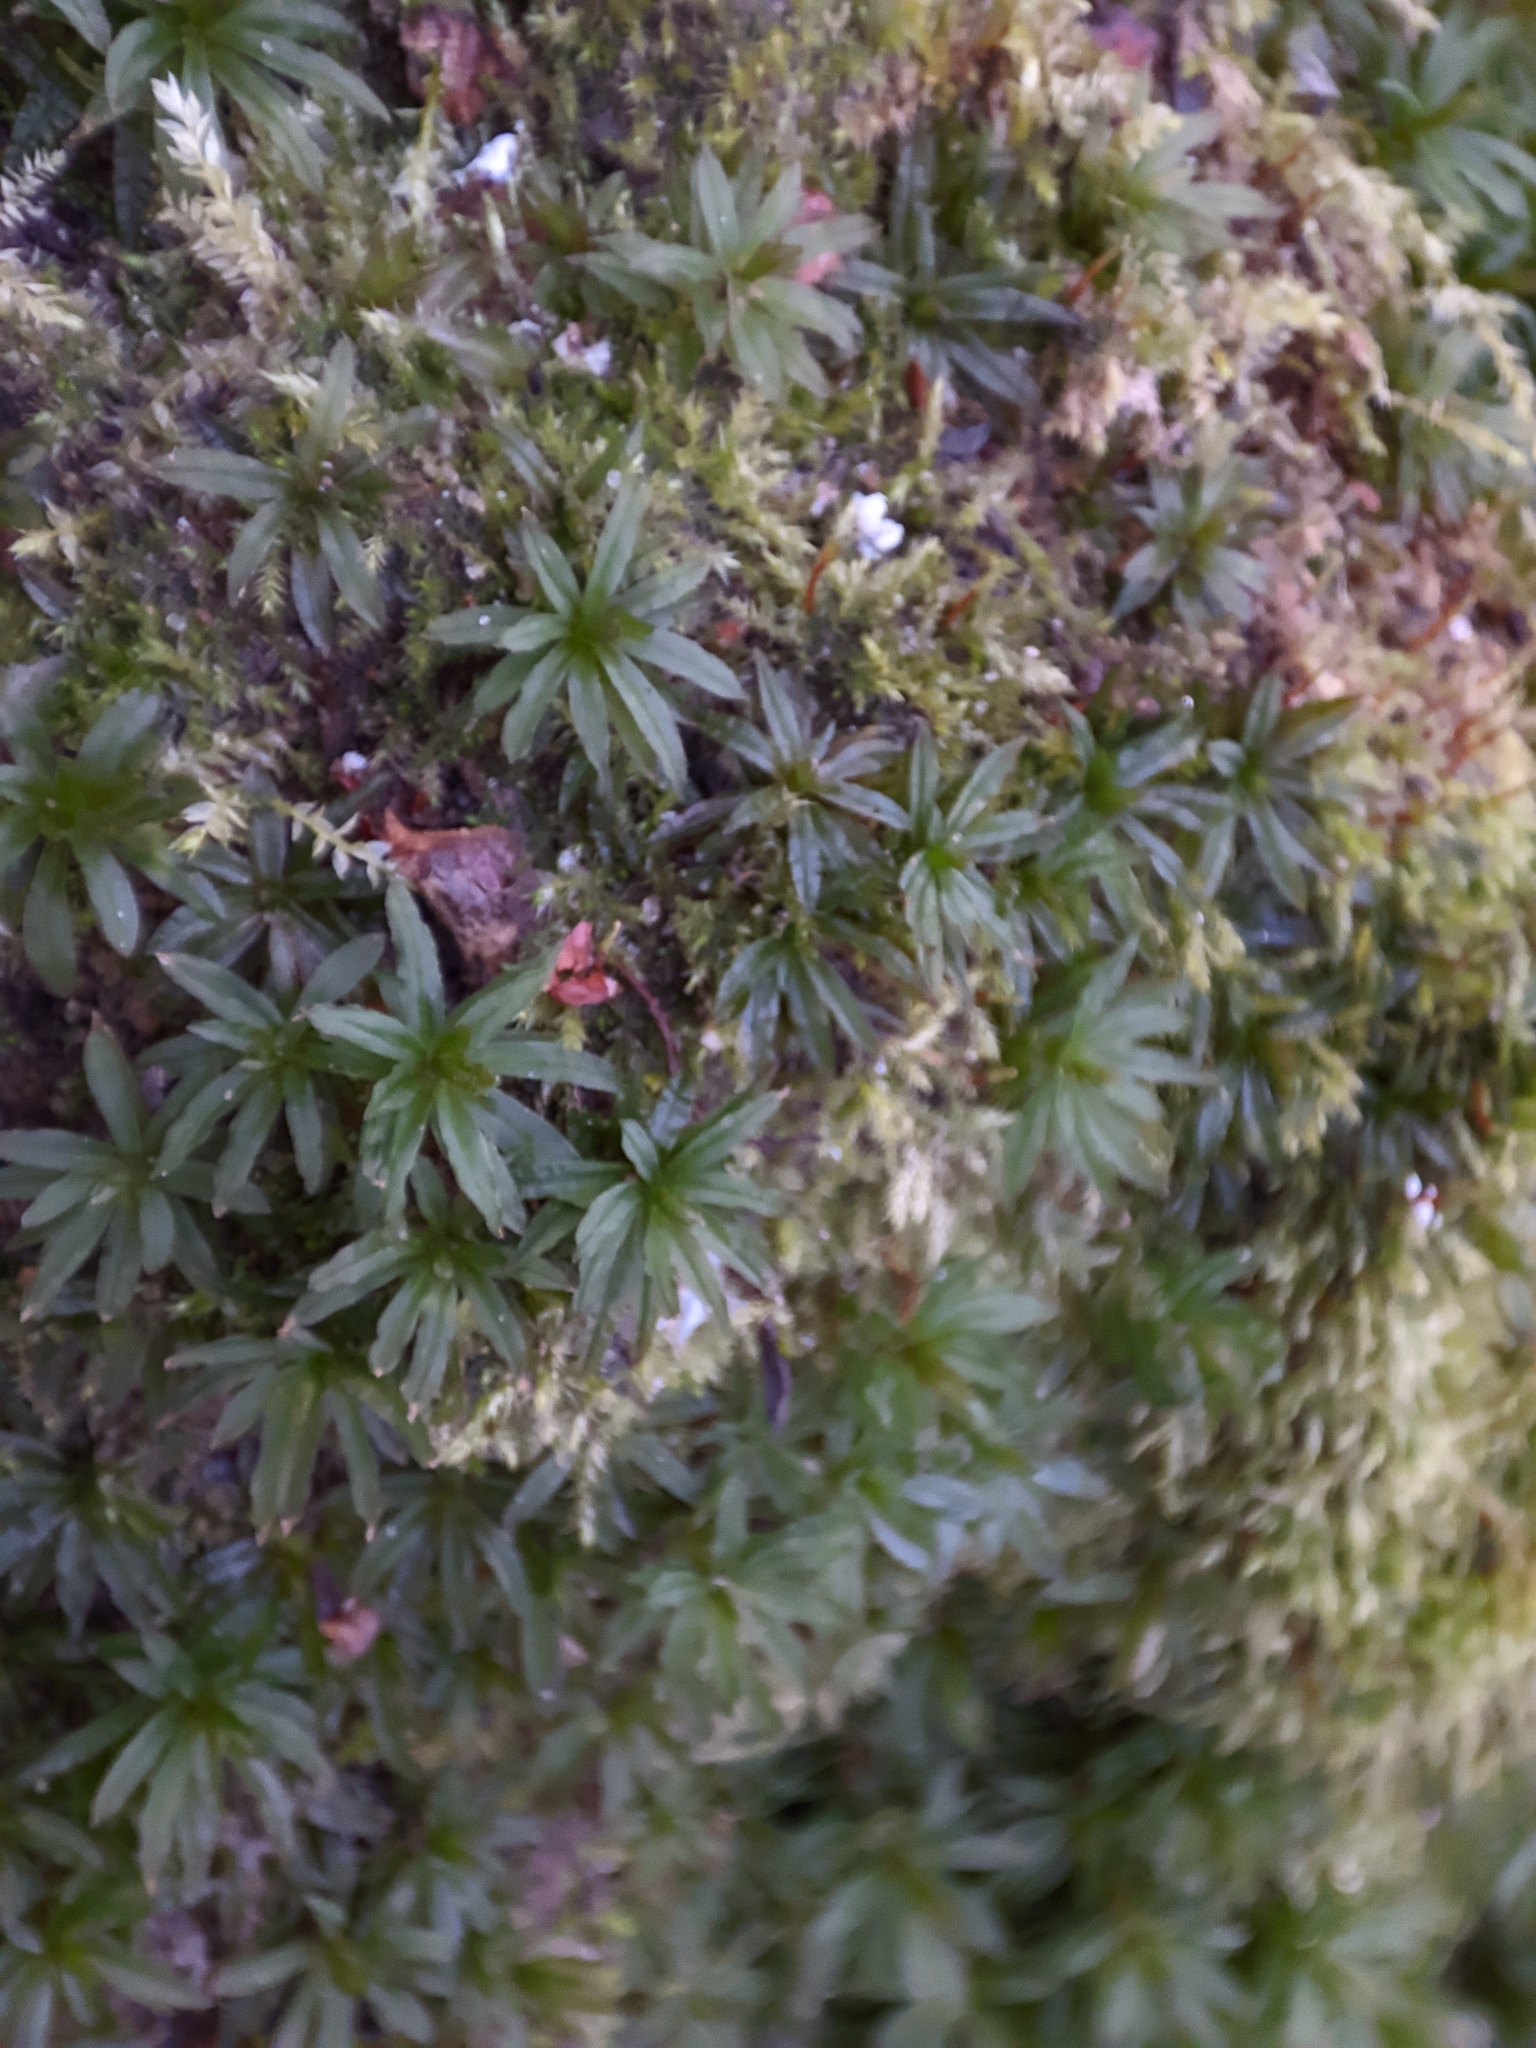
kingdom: Plantae
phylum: Bryophyta
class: Polytrichopsida
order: Polytrichales
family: Polytrichaceae
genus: Atrichum
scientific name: Atrichum undulatum
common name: Common smoothcap
